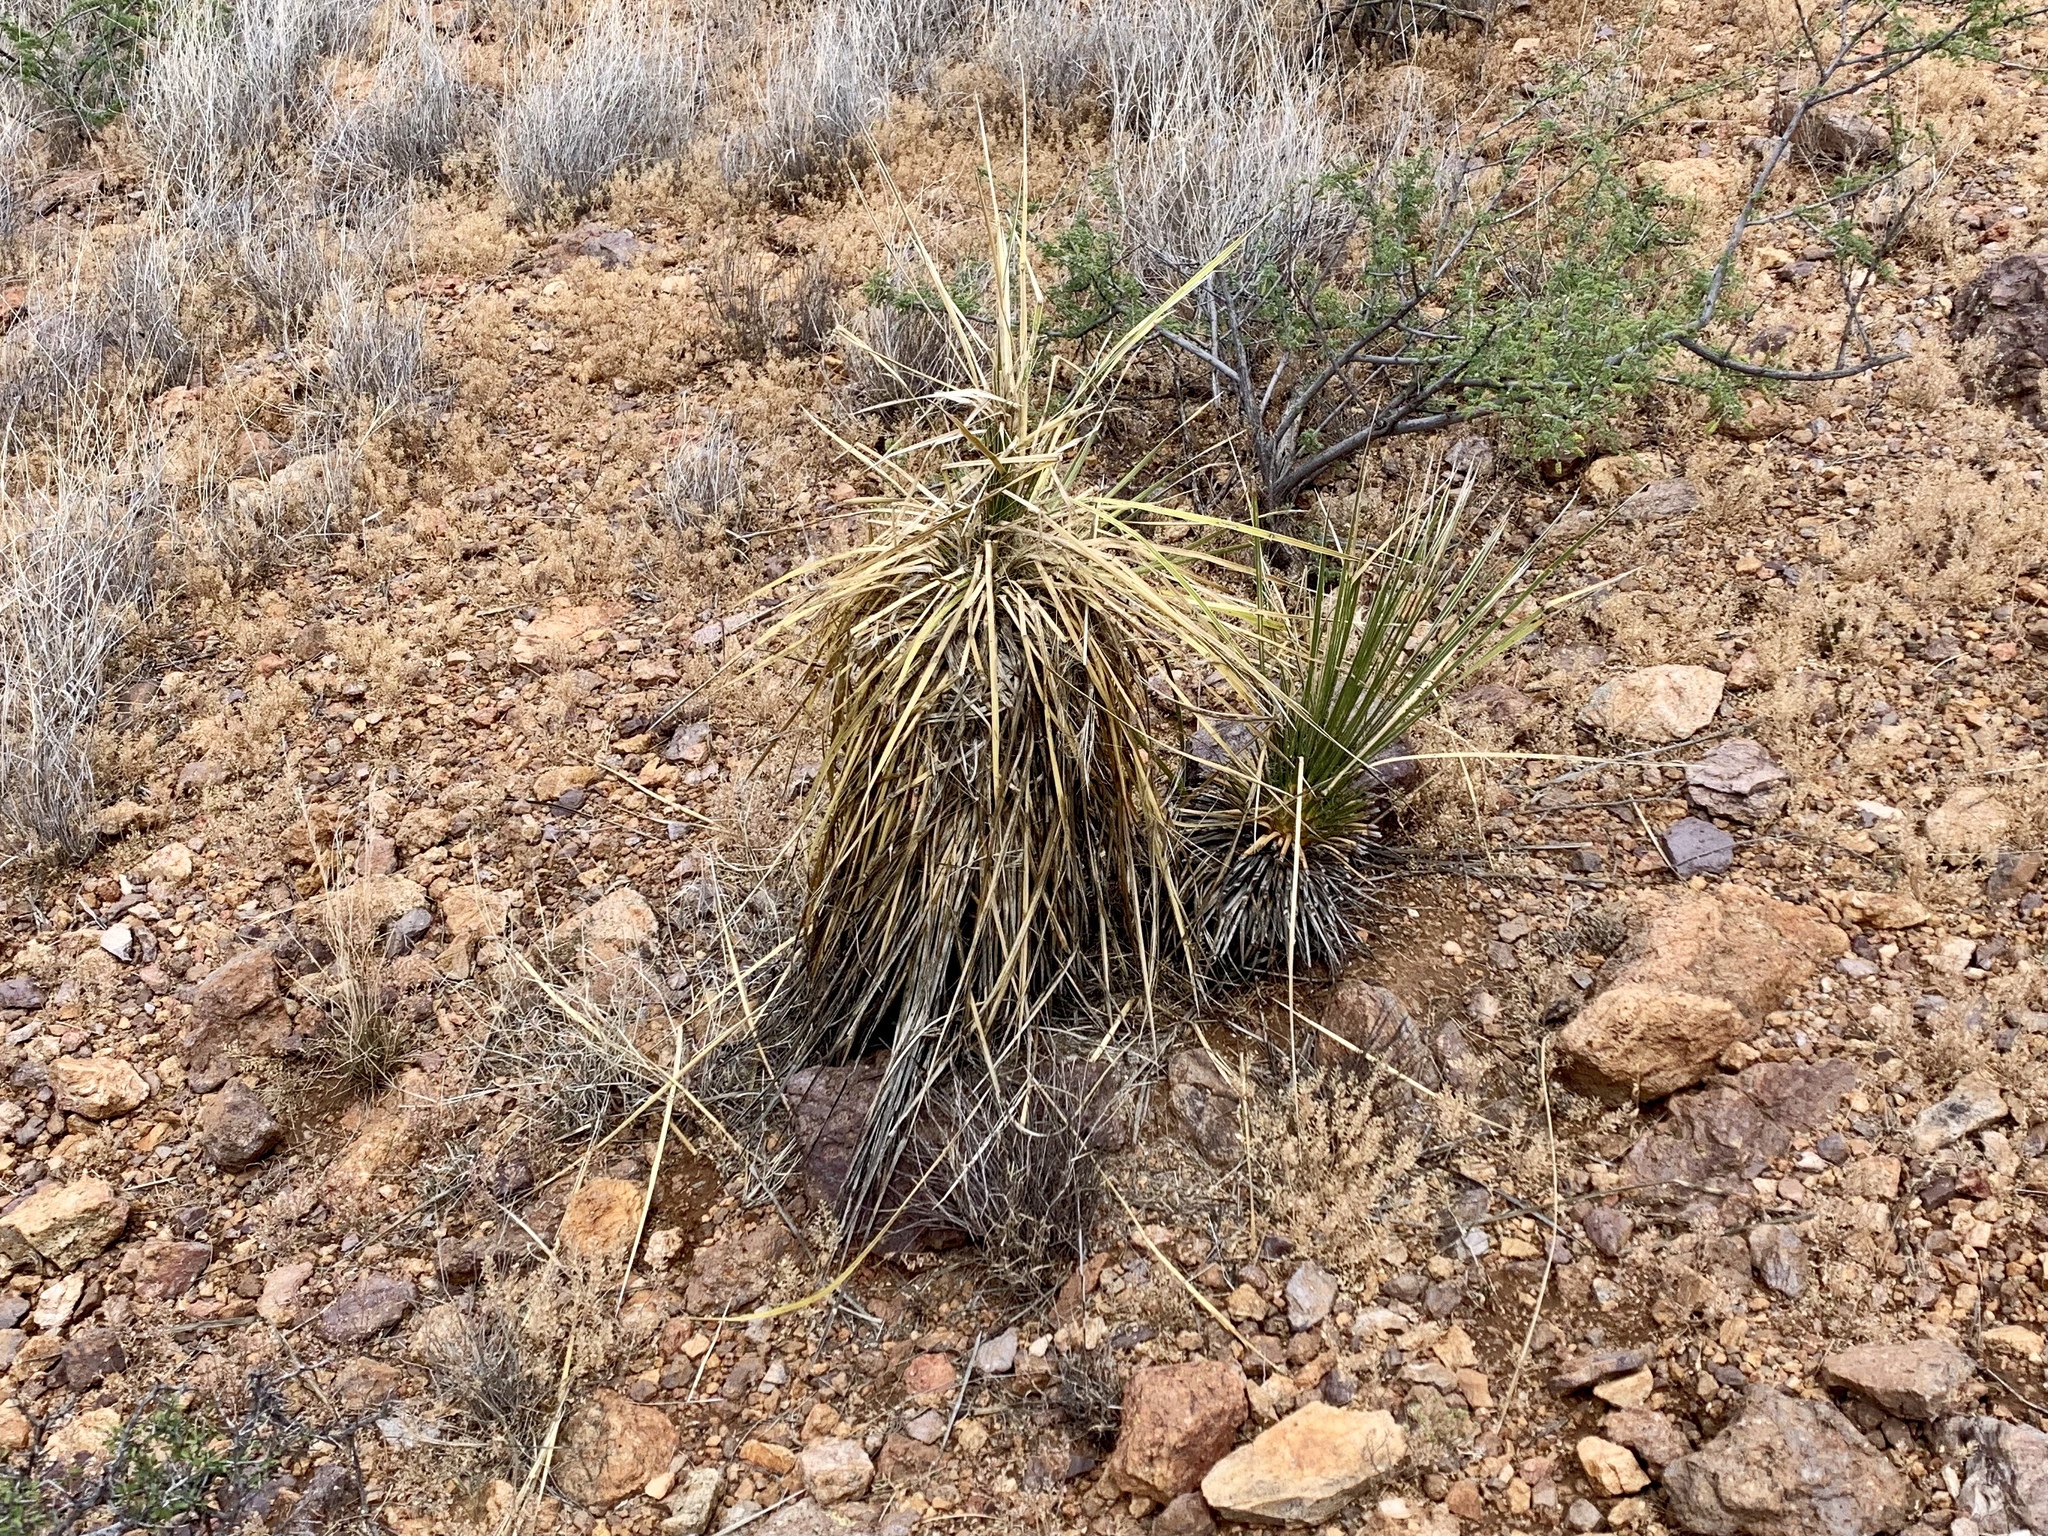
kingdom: Plantae
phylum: Tracheophyta
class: Liliopsida
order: Asparagales
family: Asparagaceae
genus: Yucca
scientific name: Yucca elata
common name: Palmella
